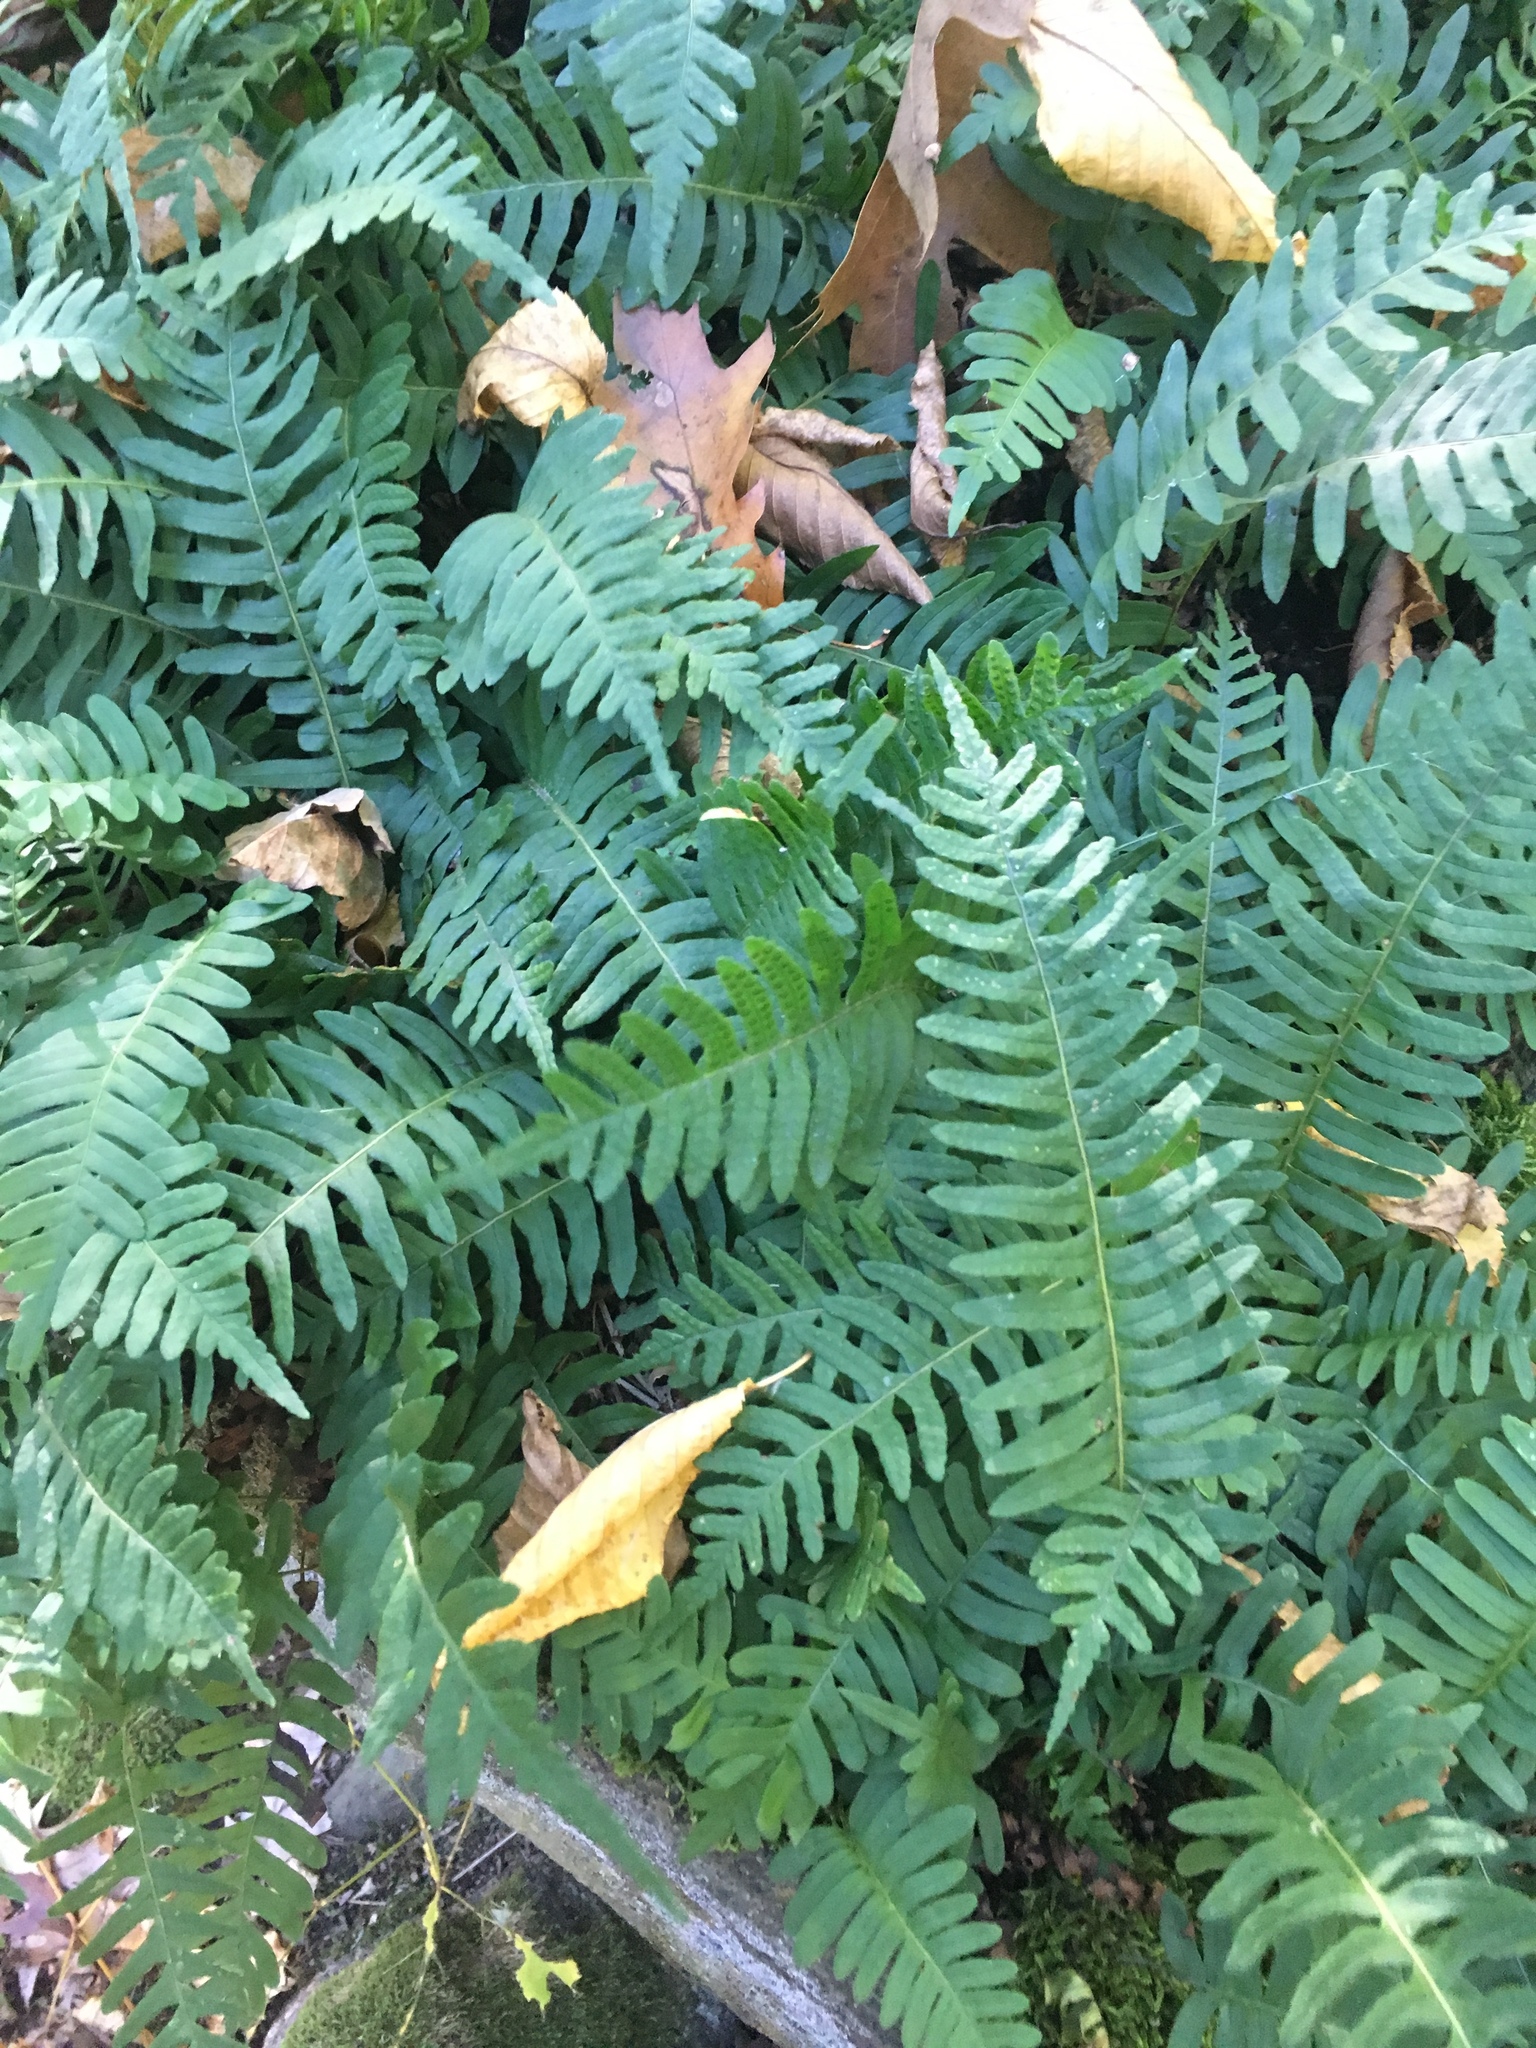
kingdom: Plantae
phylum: Tracheophyta
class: Polypodiopsida
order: Polypodiales
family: Polypodiaceae
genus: Polypodium
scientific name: Polypodium virginianum
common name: American wall fern
